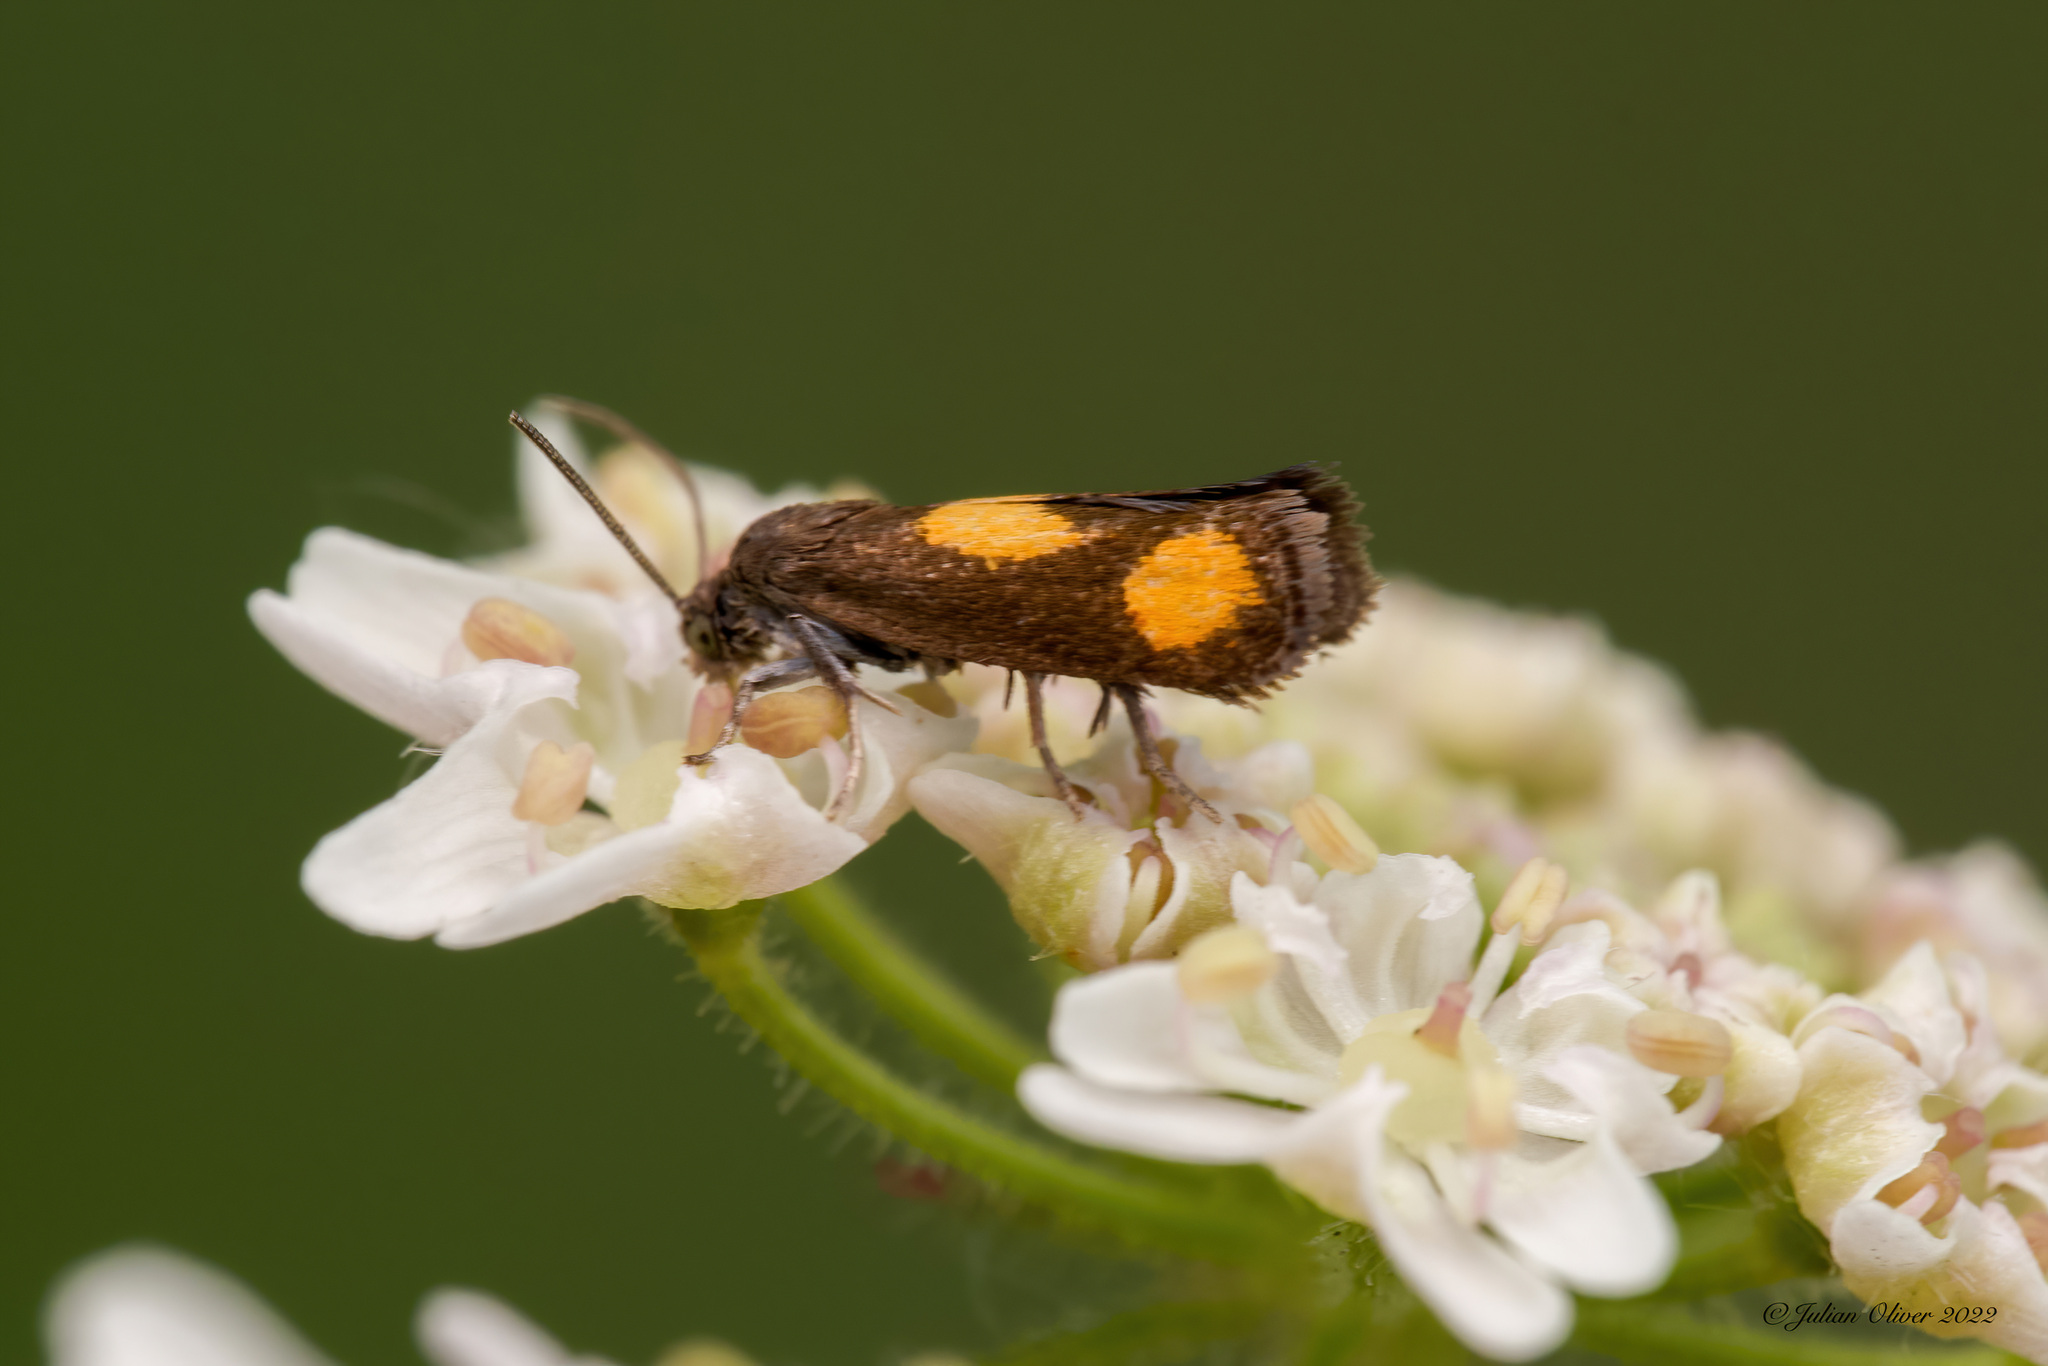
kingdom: Animalia
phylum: Arthropoda
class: Insecta
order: Lepidoptera
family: Tortricidae
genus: Pammene
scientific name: Pammene aurana
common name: Orange-spot piercer
